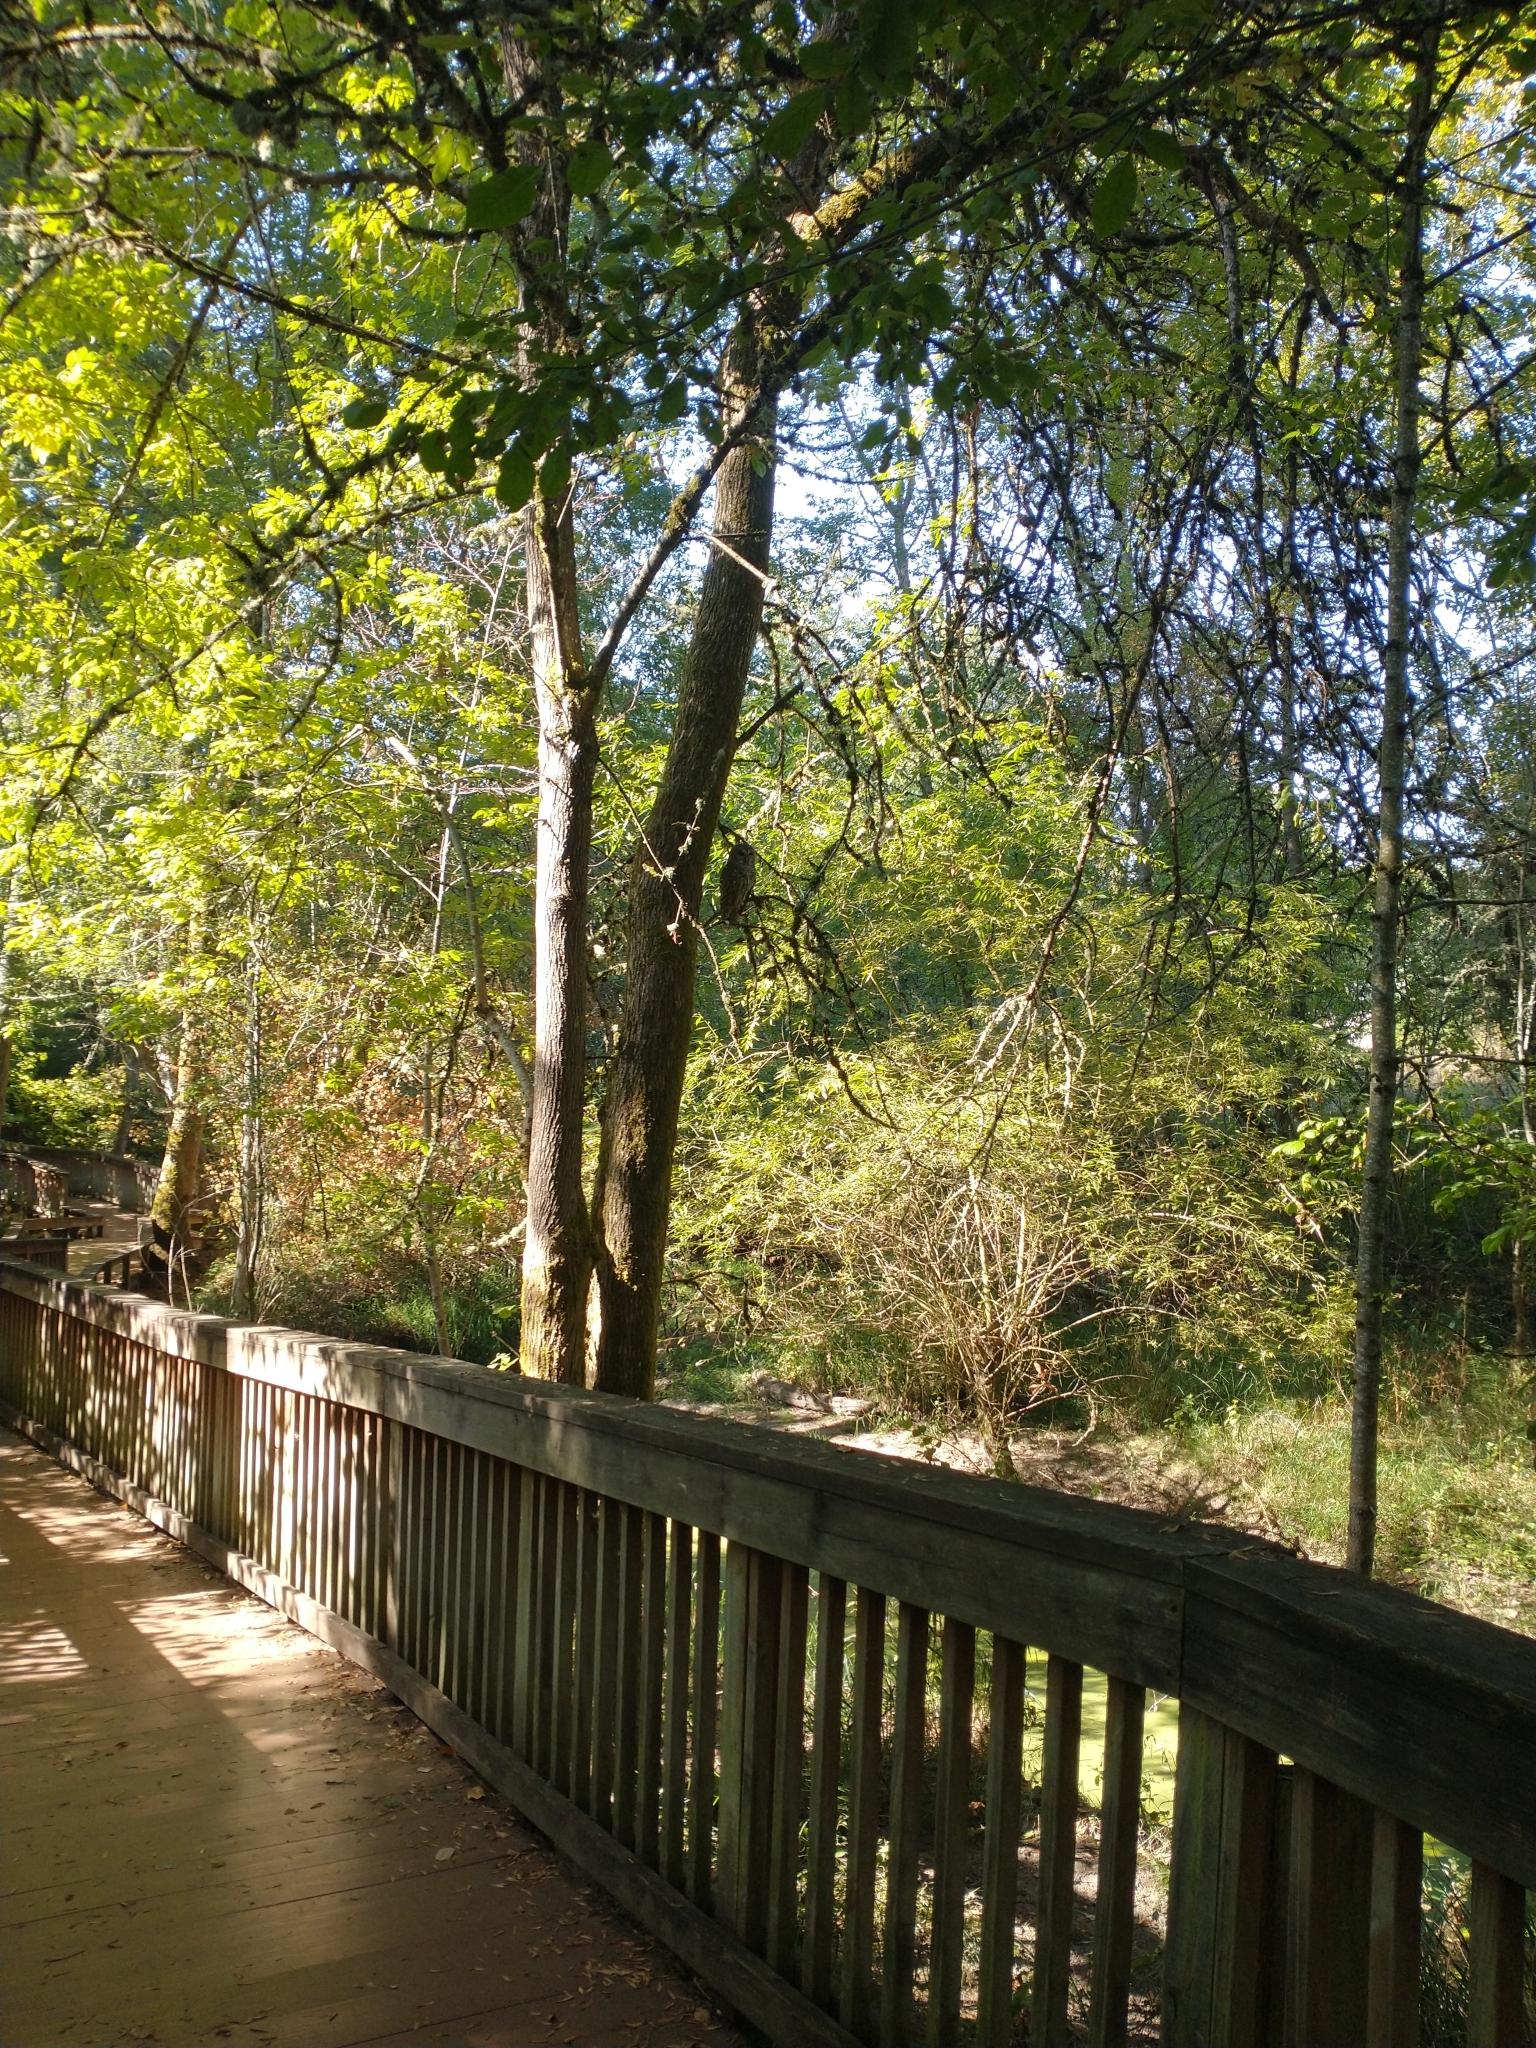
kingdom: Animalia
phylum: Chordata
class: Aves
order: Strigiformes
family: Strigidae
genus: Strix
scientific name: Strix varia
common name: Barred owl
